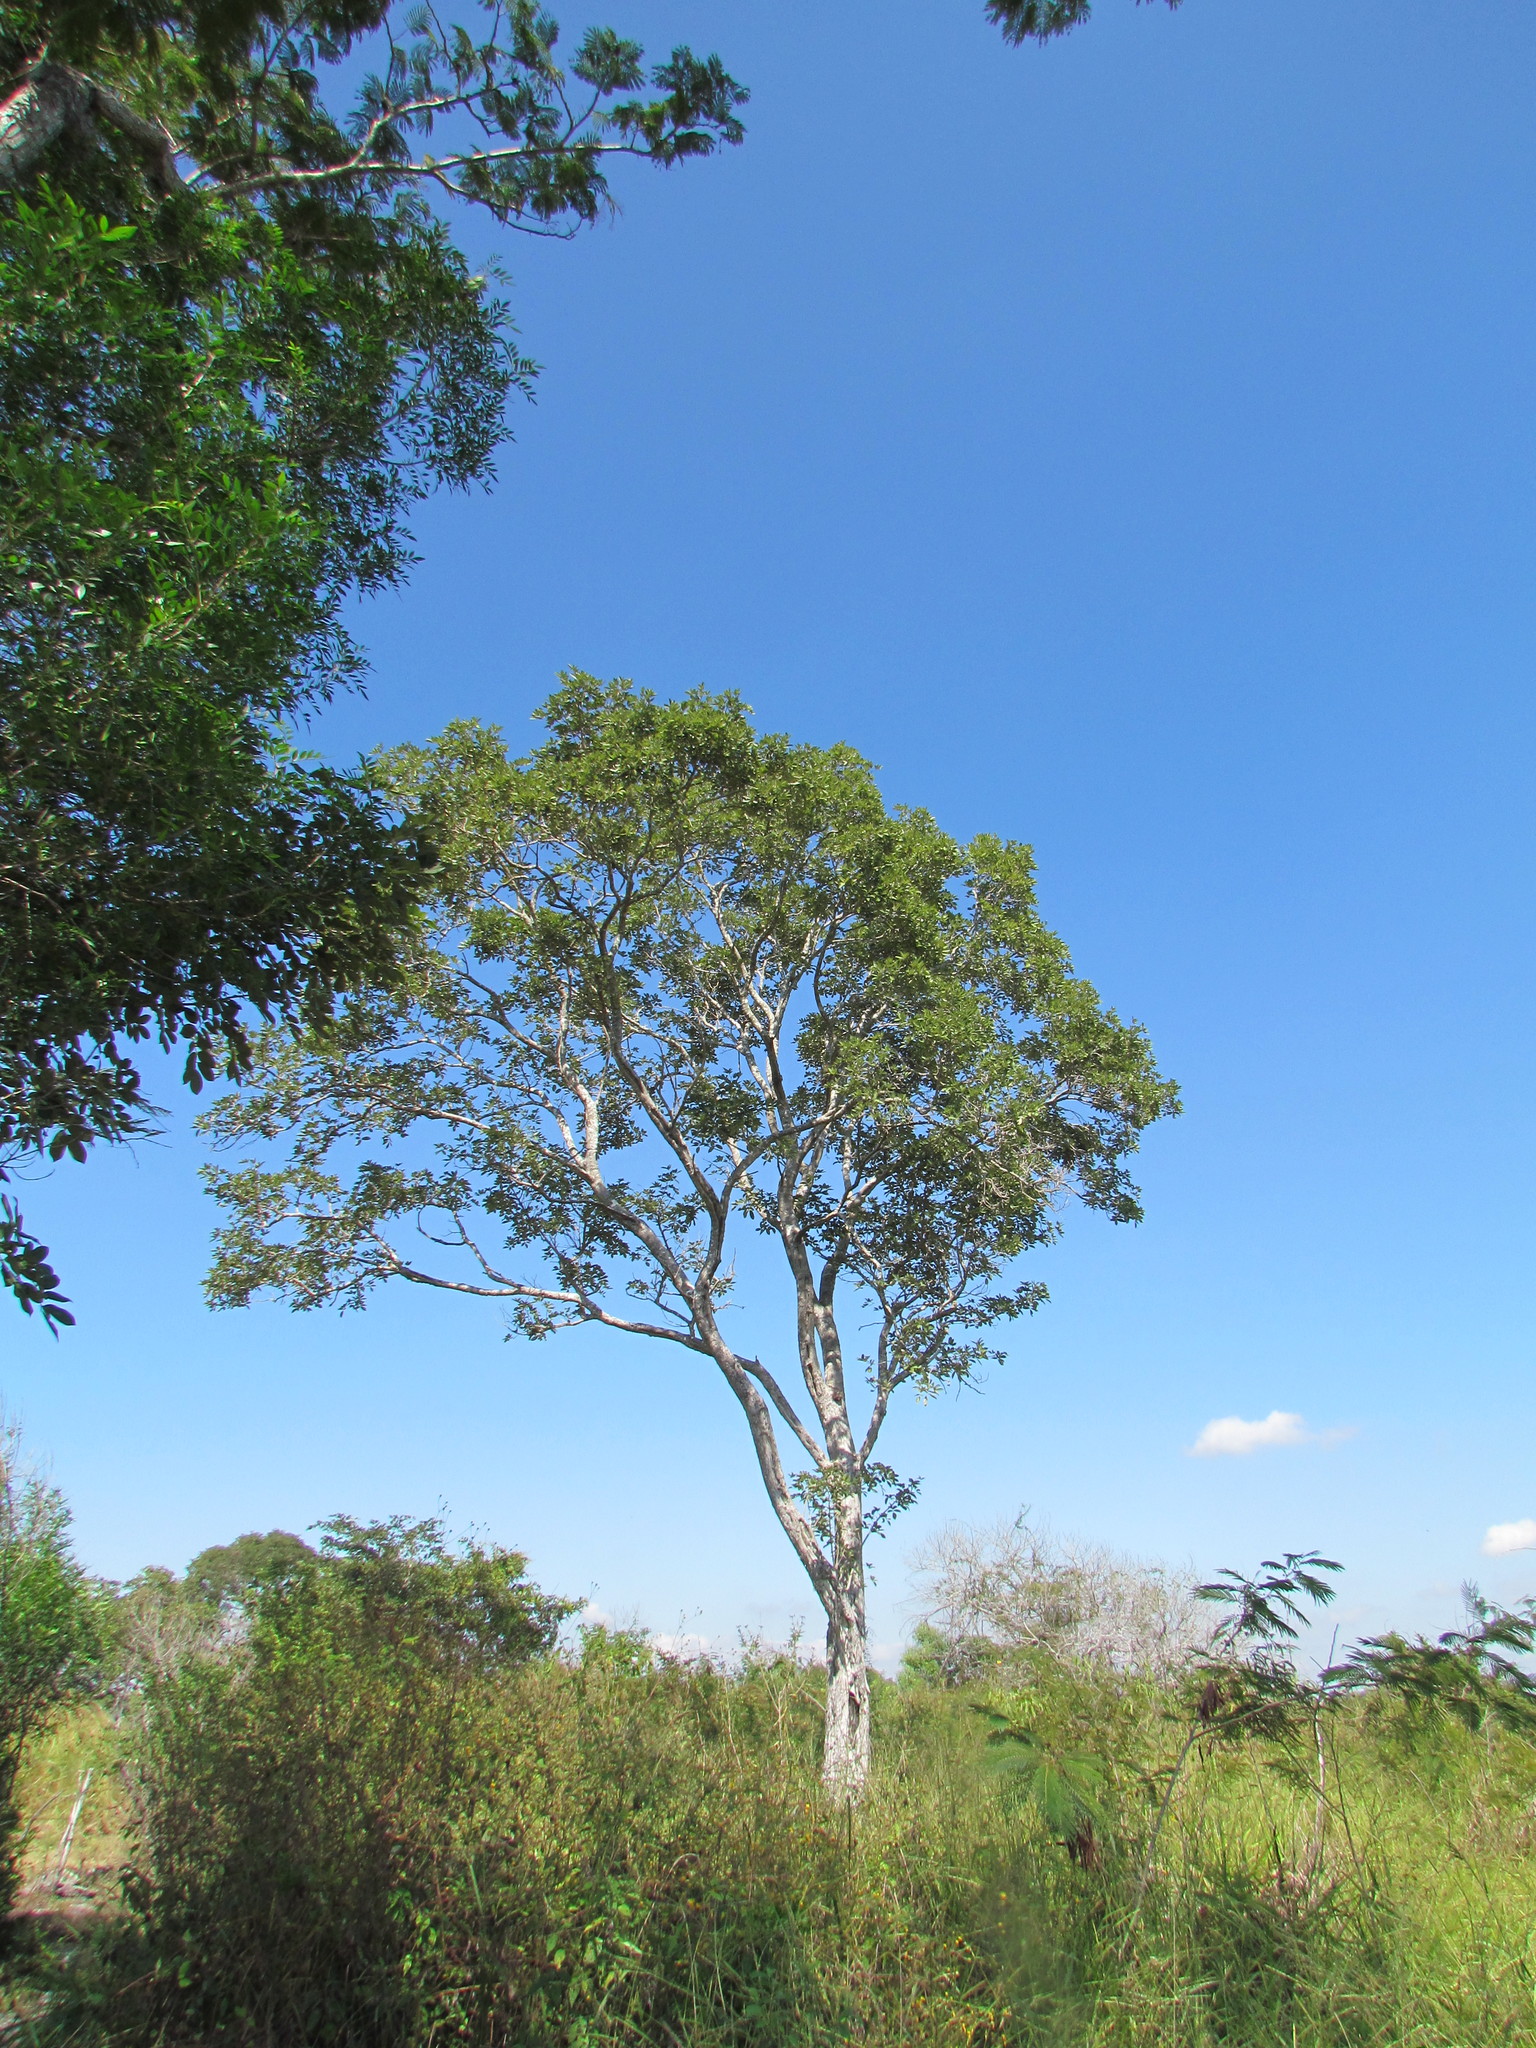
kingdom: Plantae
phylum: Tracheophyta
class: Magnoliopsida
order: Fabales
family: Fabaceae
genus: Piscidia
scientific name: Piscidia piscipula
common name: Florida fishpoison tree
